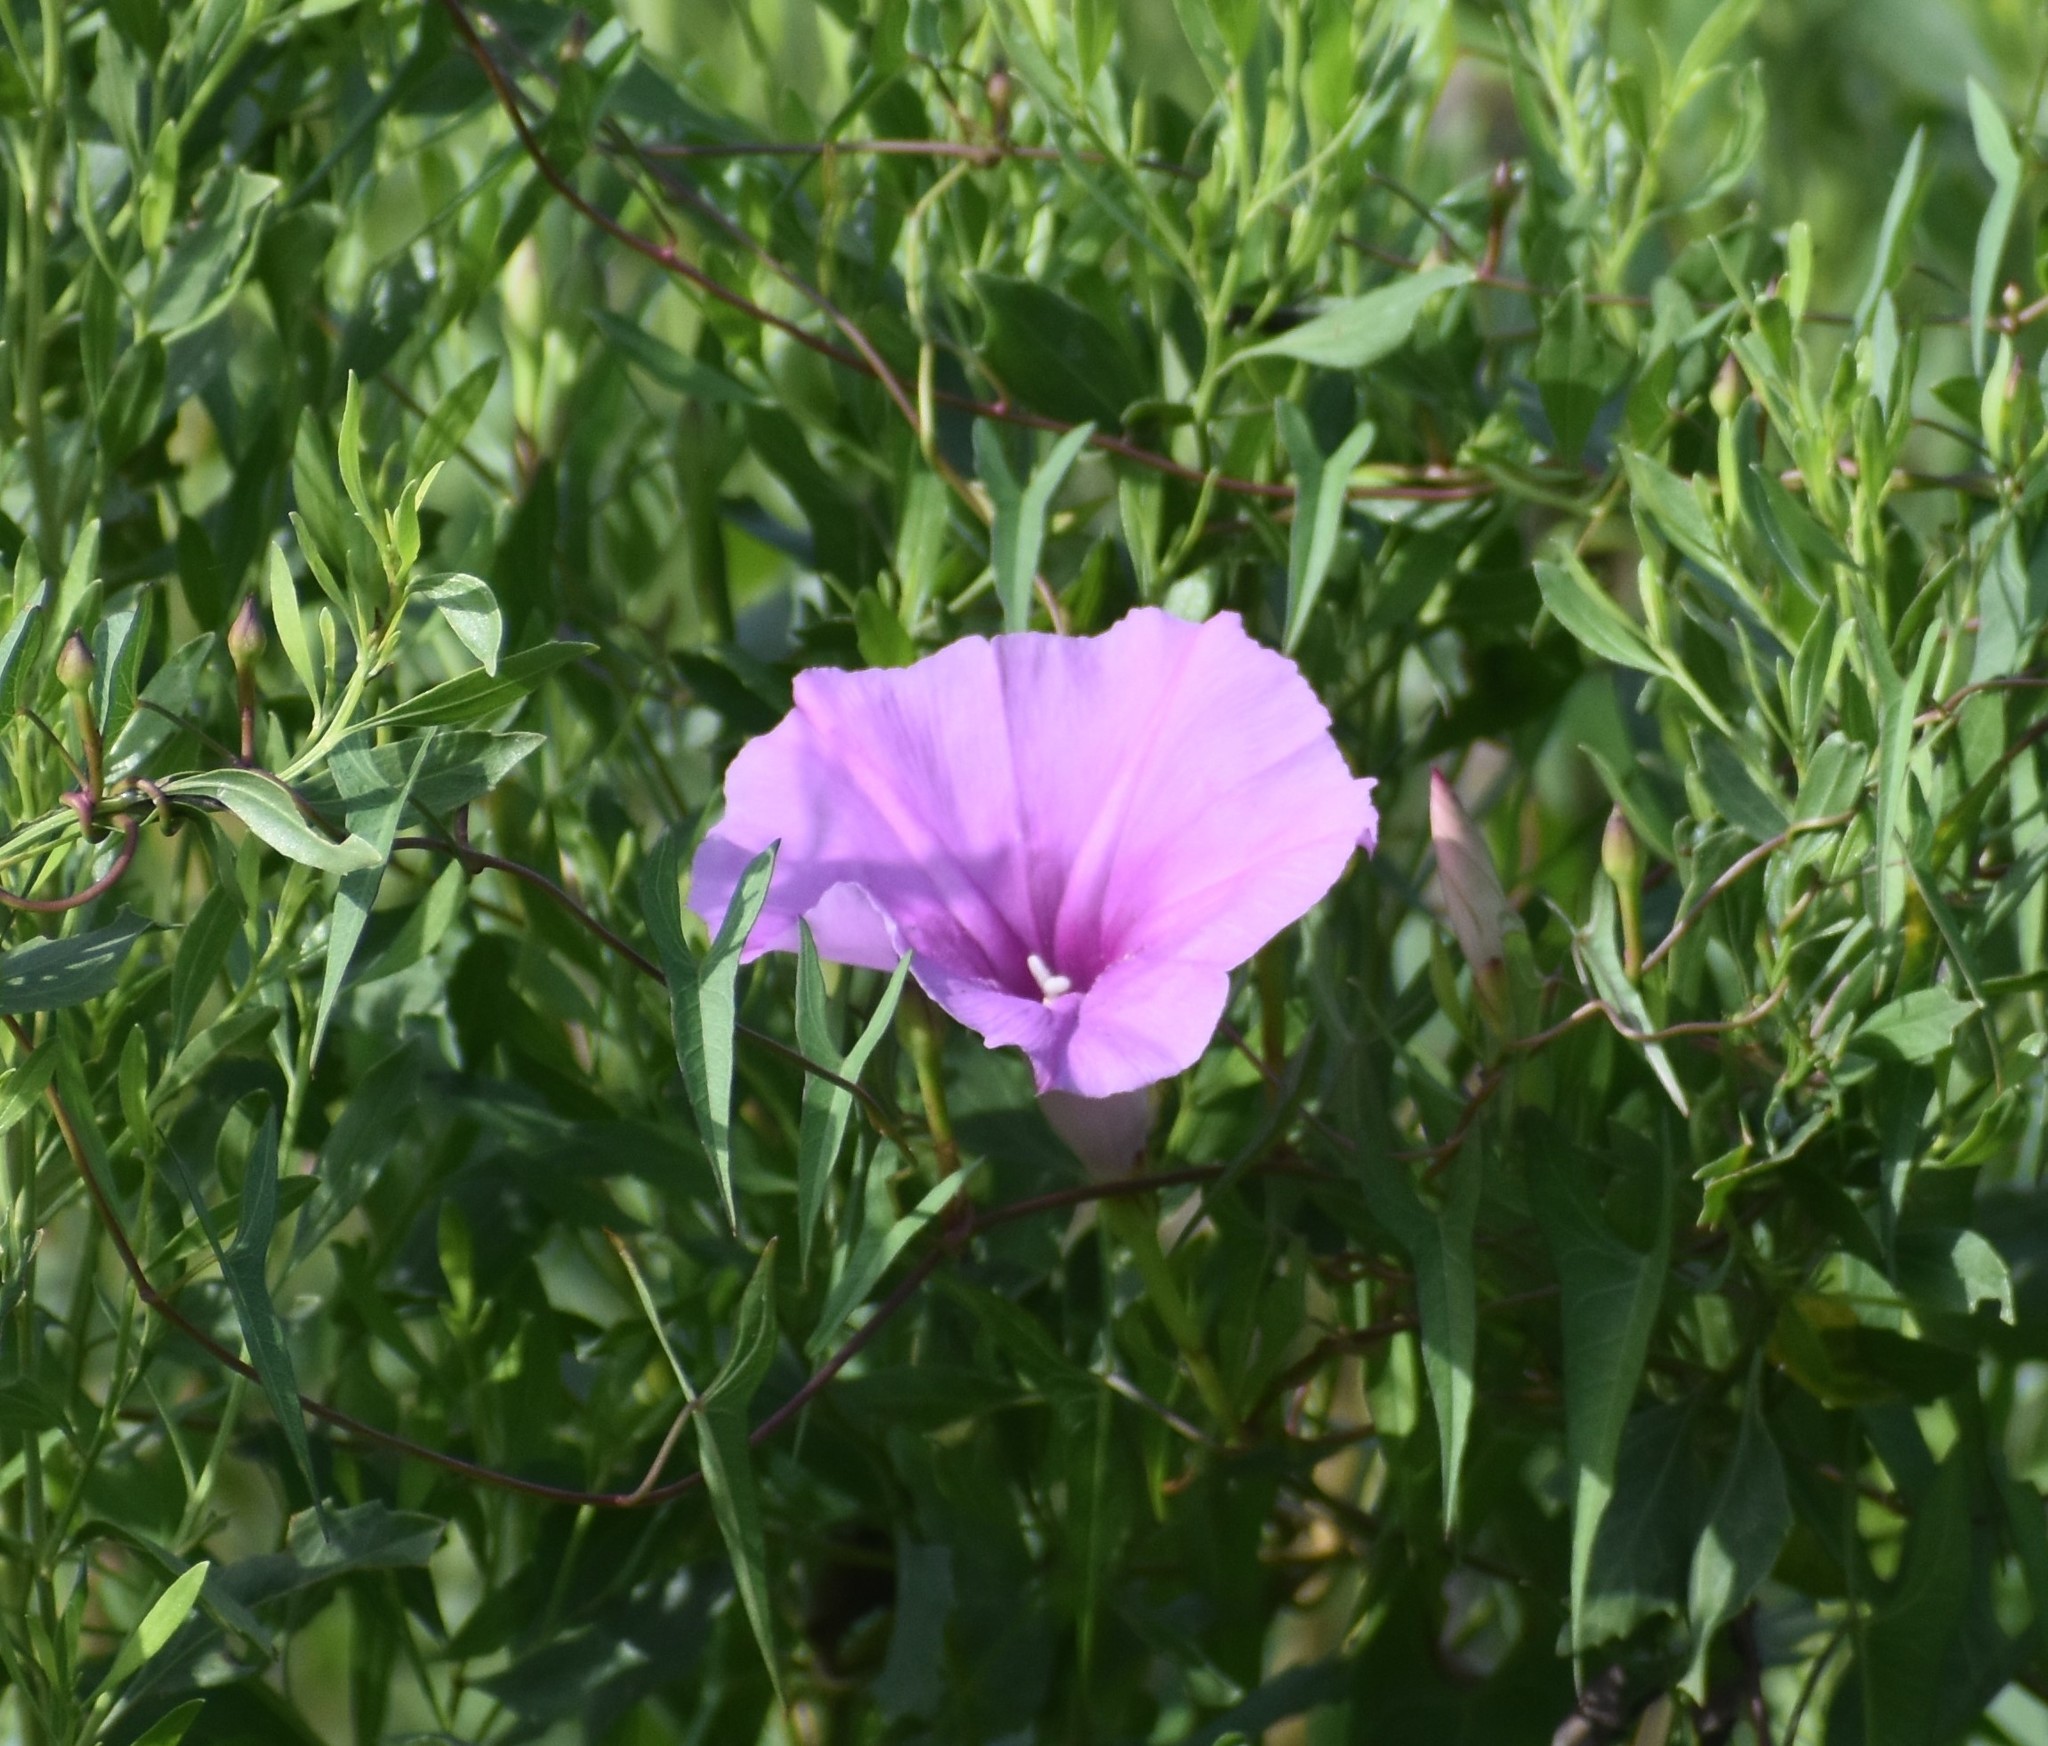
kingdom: Plantae
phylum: Tracheophyta
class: Magnoliopsida
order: Solanales
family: Convolvulaceae
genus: Ipomoea
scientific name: Ipomoea sagittata
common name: Saltmarsh morning glory
